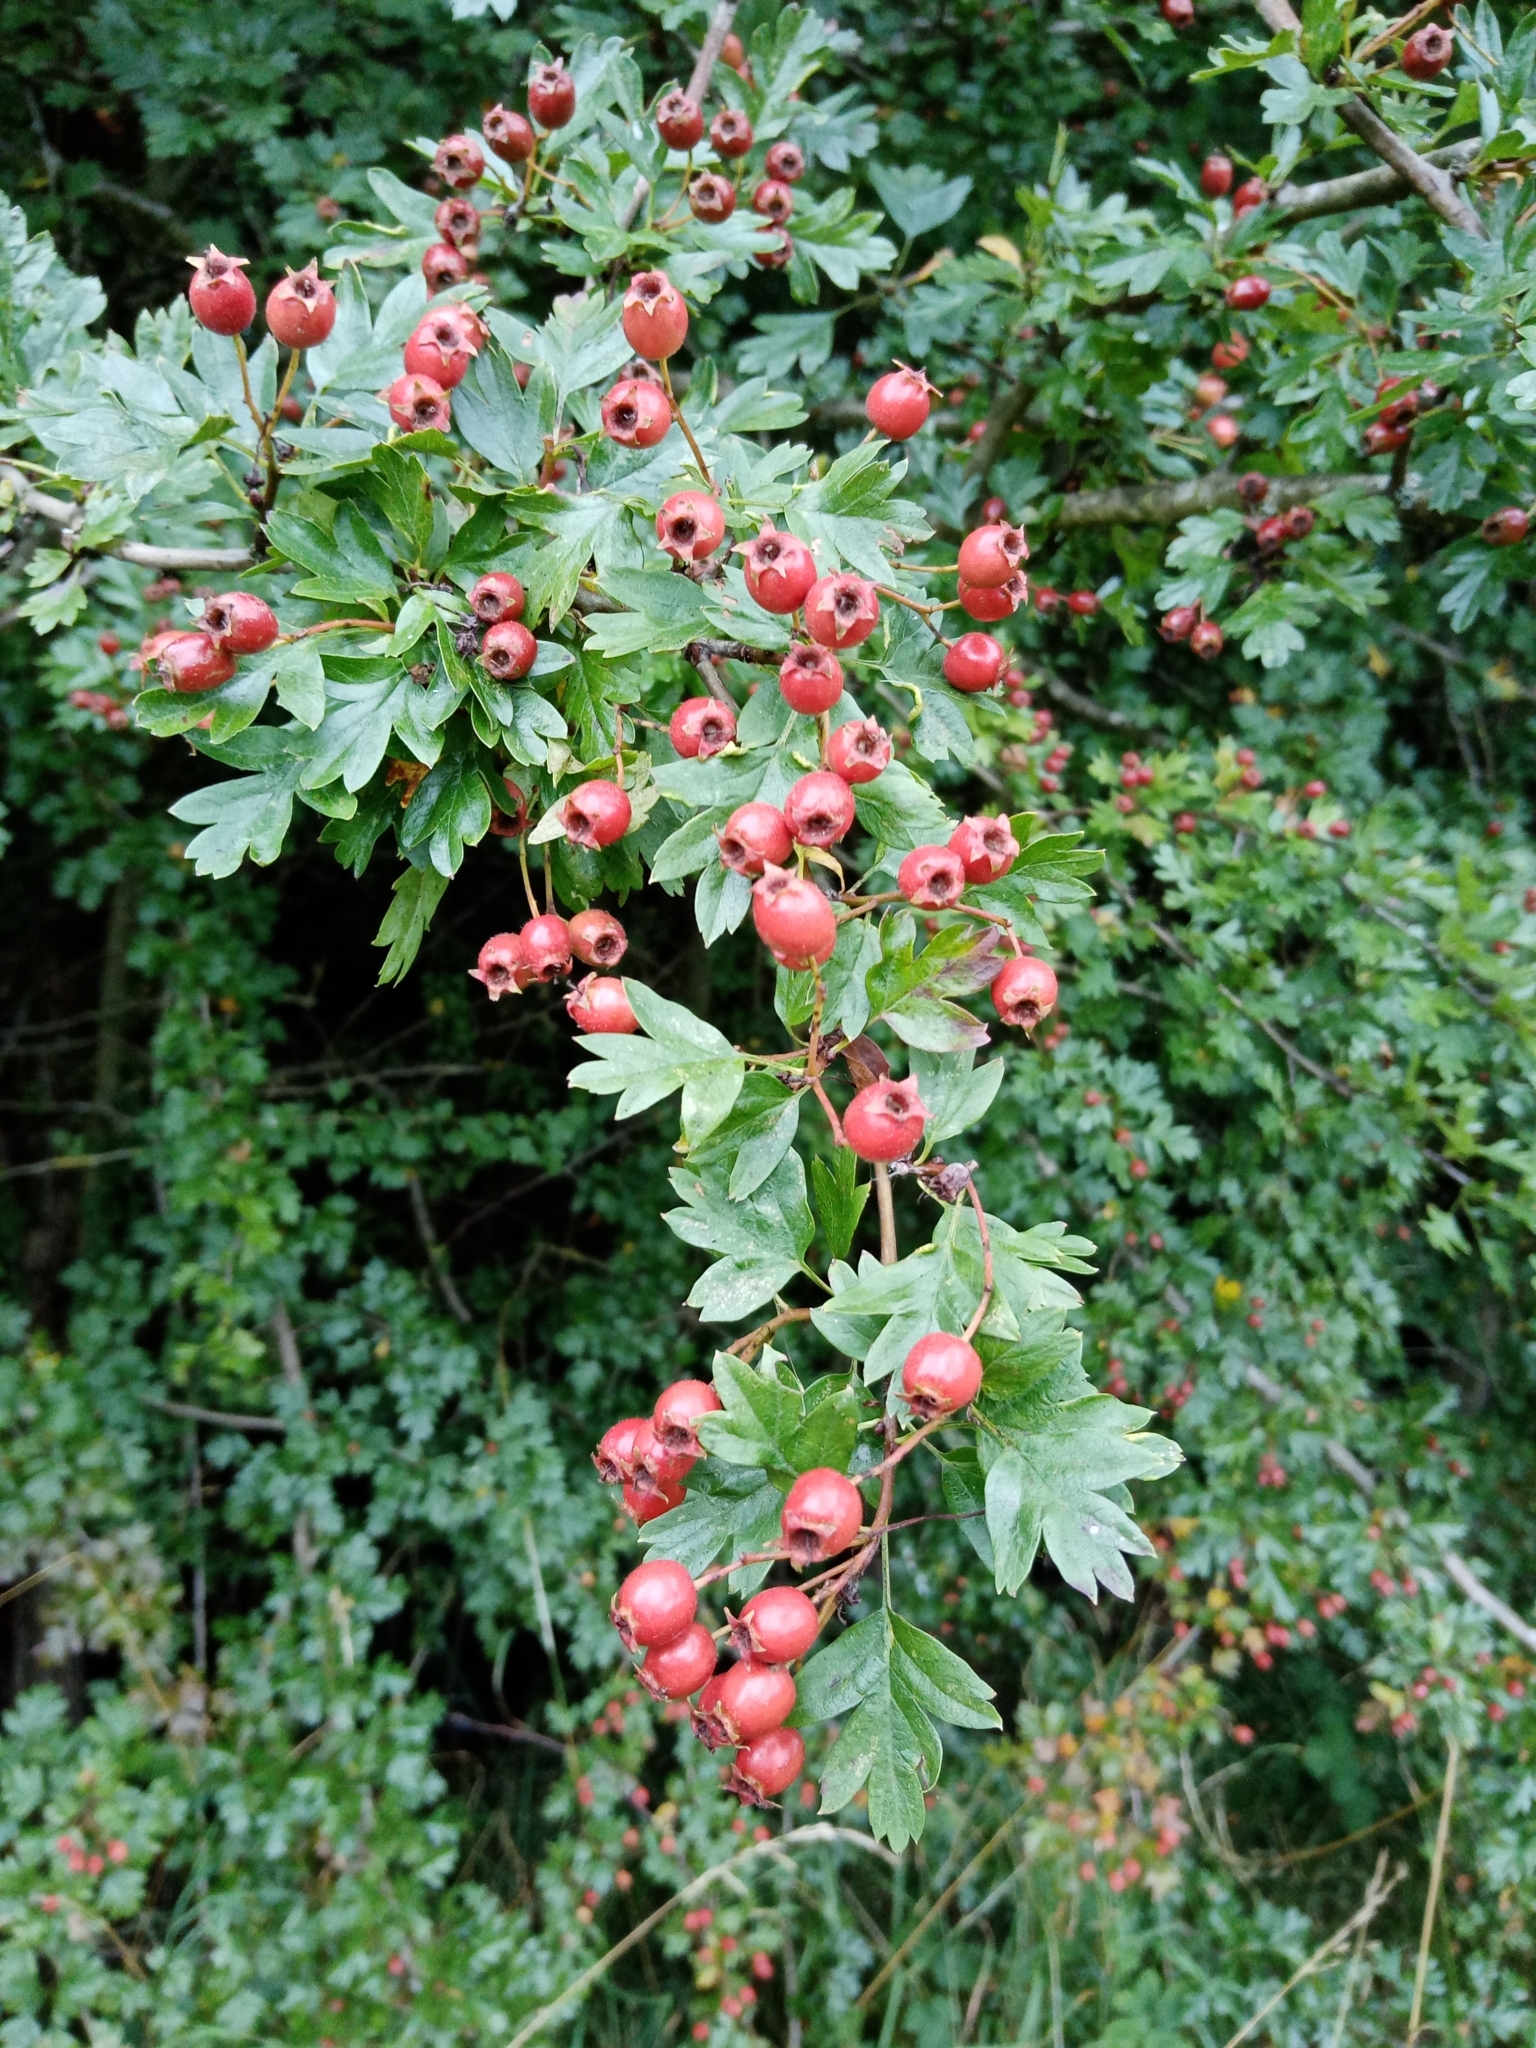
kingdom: Plantae
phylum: Tracheophyta
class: Magnoliopsida
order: Rosales
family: Rosaceae
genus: Crataegus
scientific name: Crataegus monogyna
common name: Hawthorn
